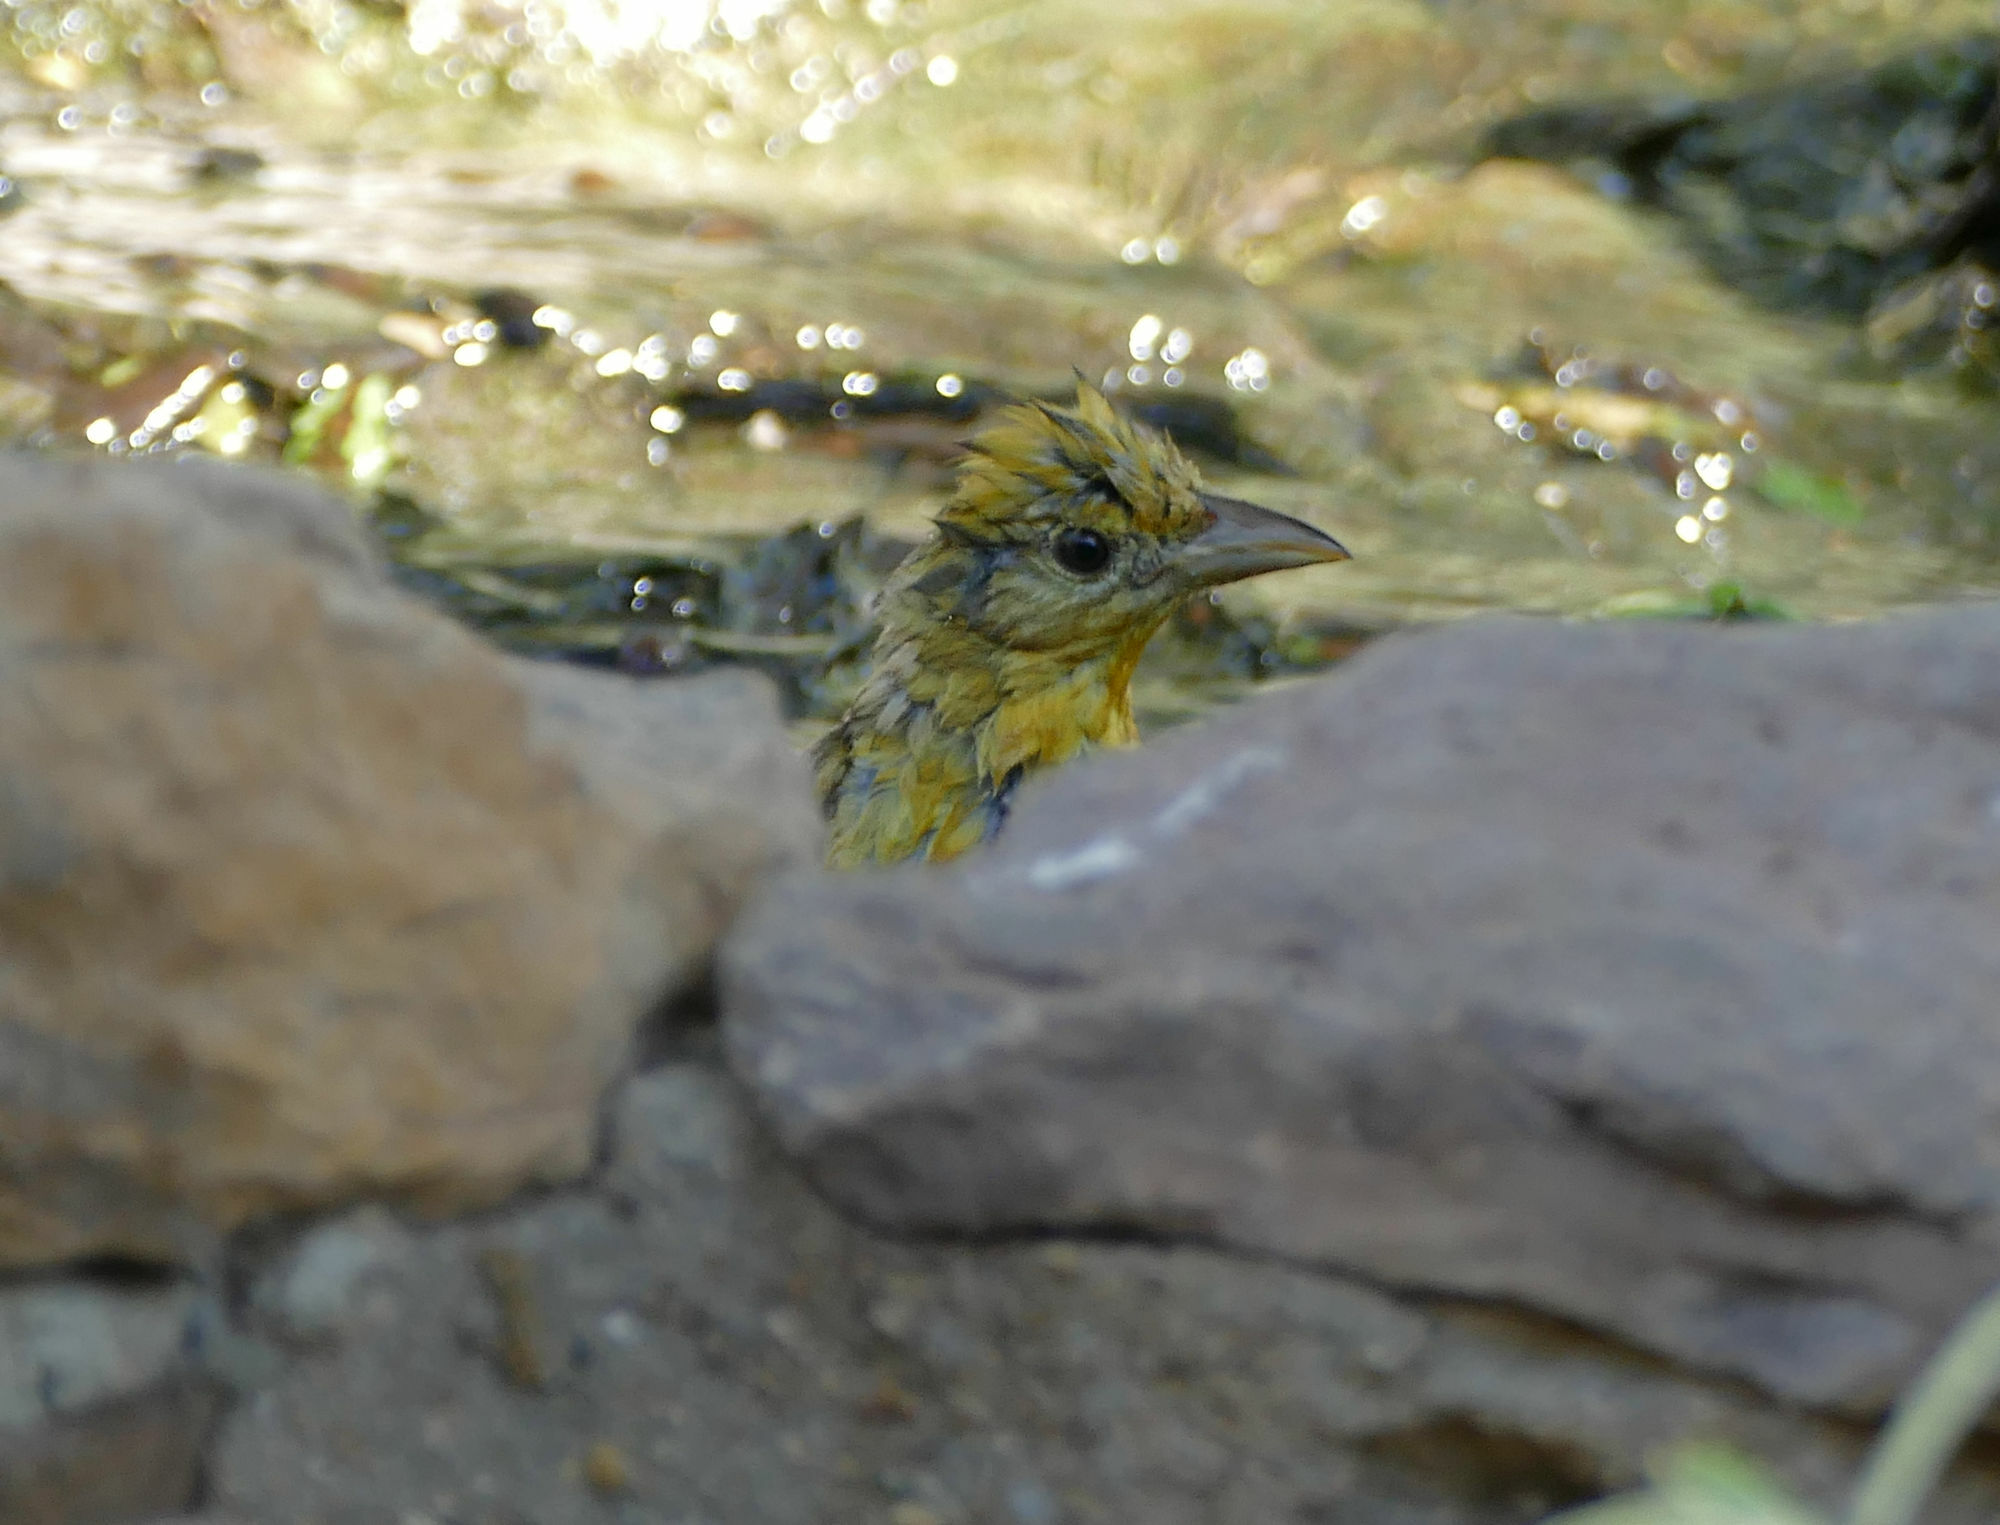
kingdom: Animalia
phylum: Chordata
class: Aves
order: Passeriformes
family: Cardinalidae
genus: Piranga
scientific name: Piranga rubra
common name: Summer tanager
